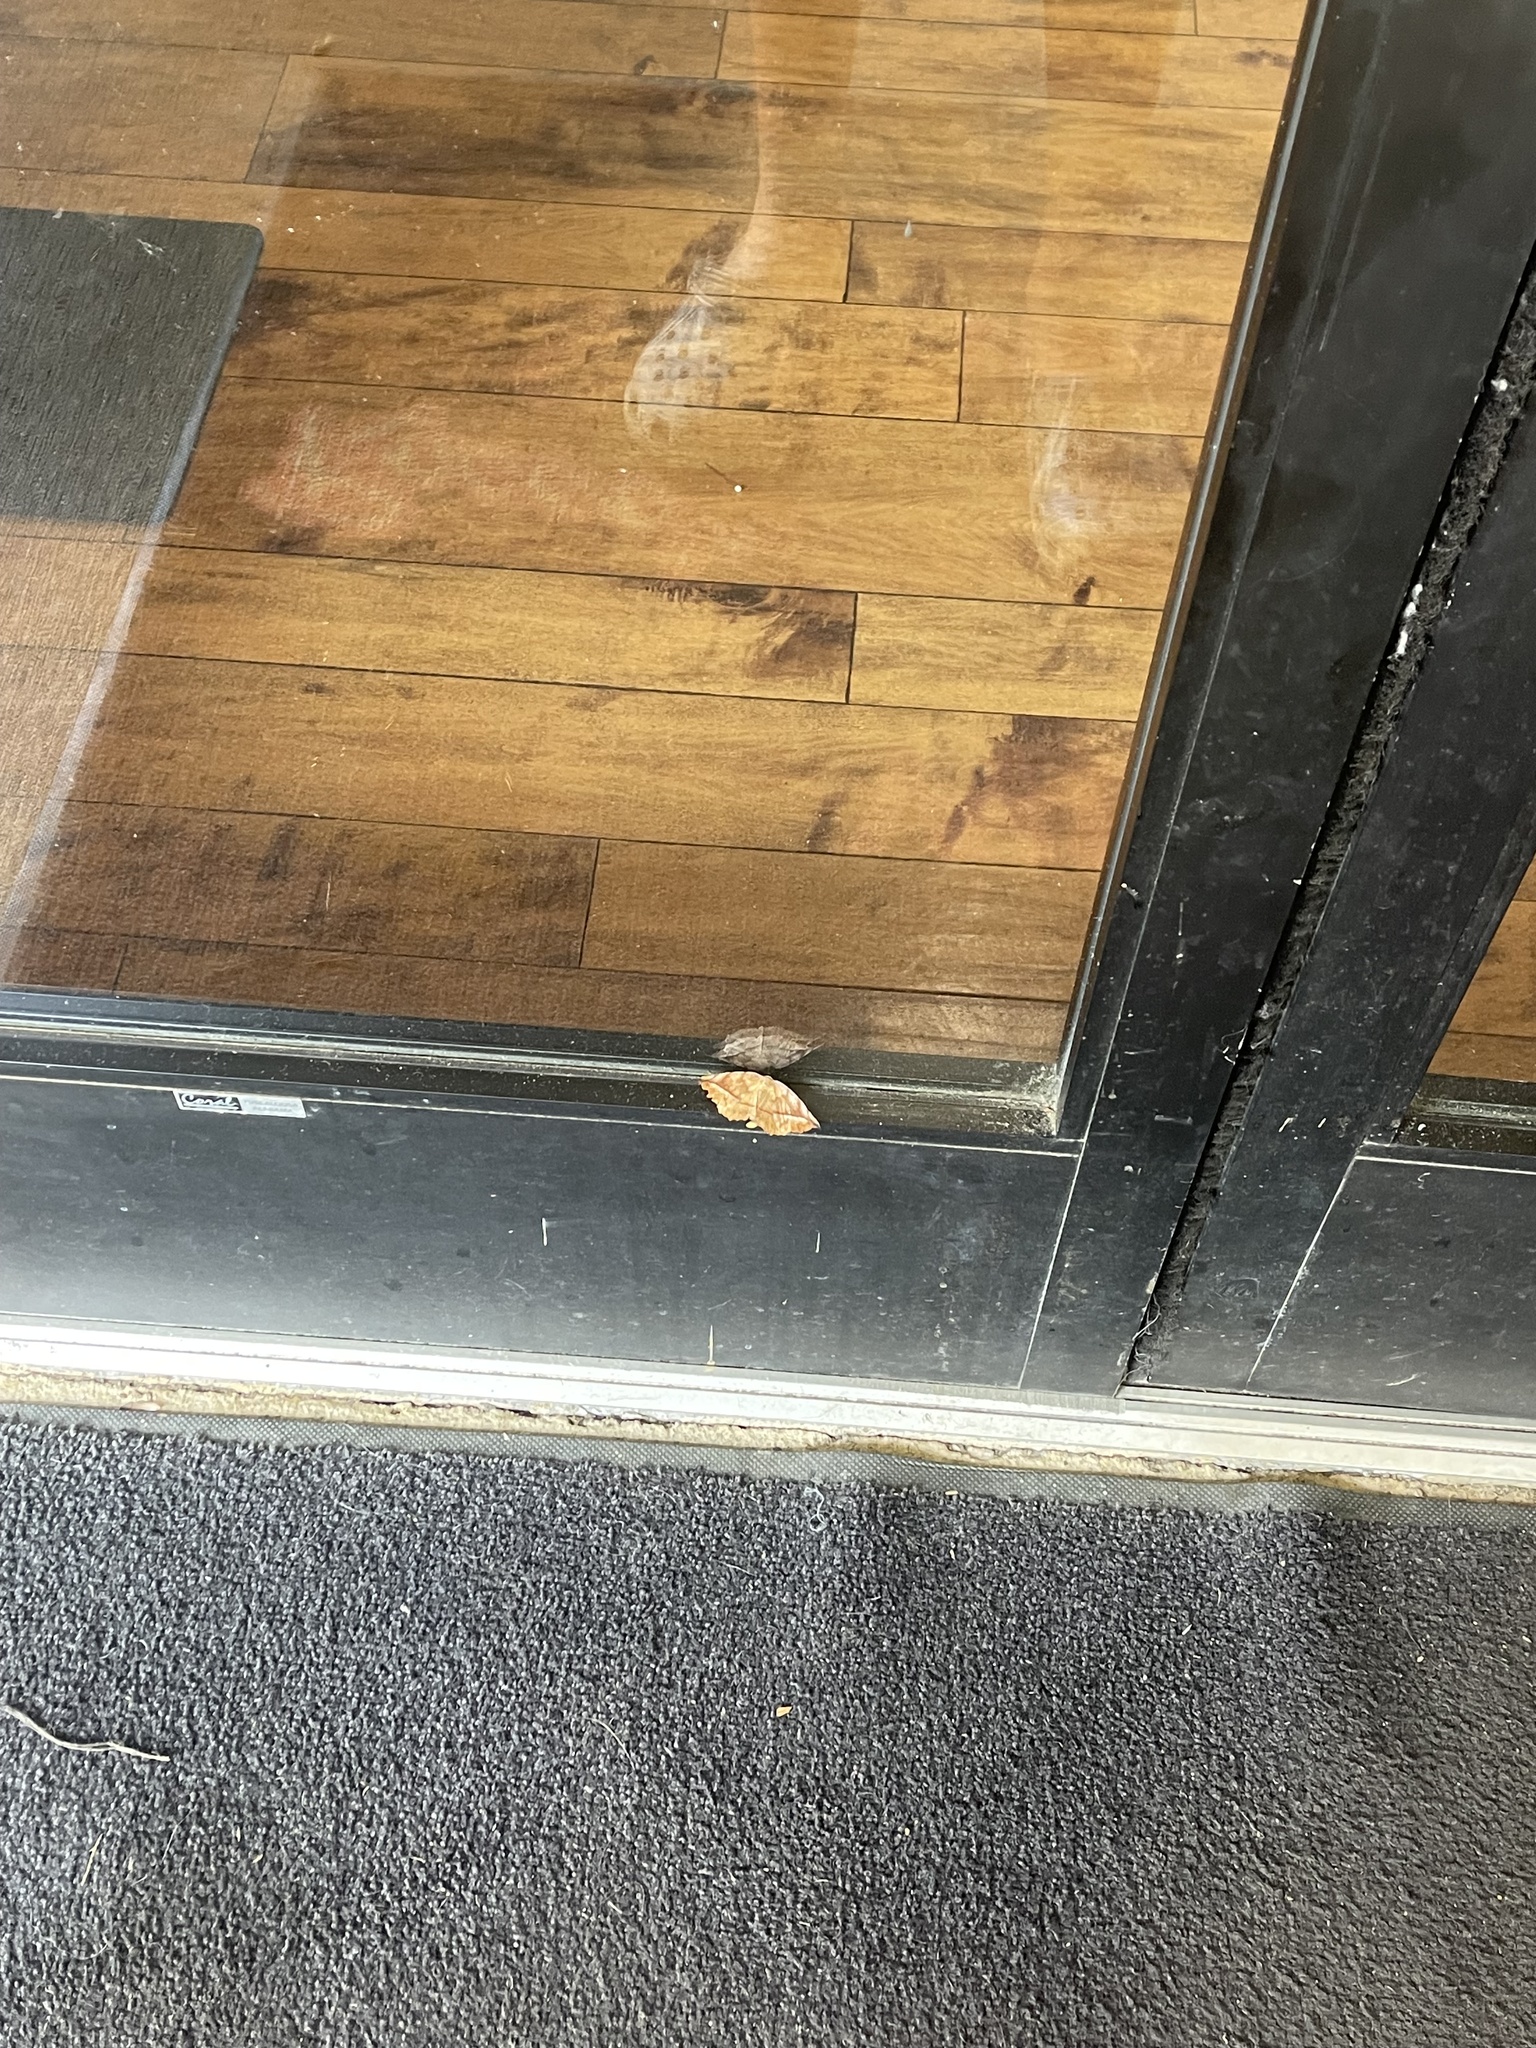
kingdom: Animalia
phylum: Arthropoda
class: Insecta
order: Lepidoptera
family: Geometridae
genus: Eutrapela
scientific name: Eutrapela clemataria
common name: Curved-toothed geometer
